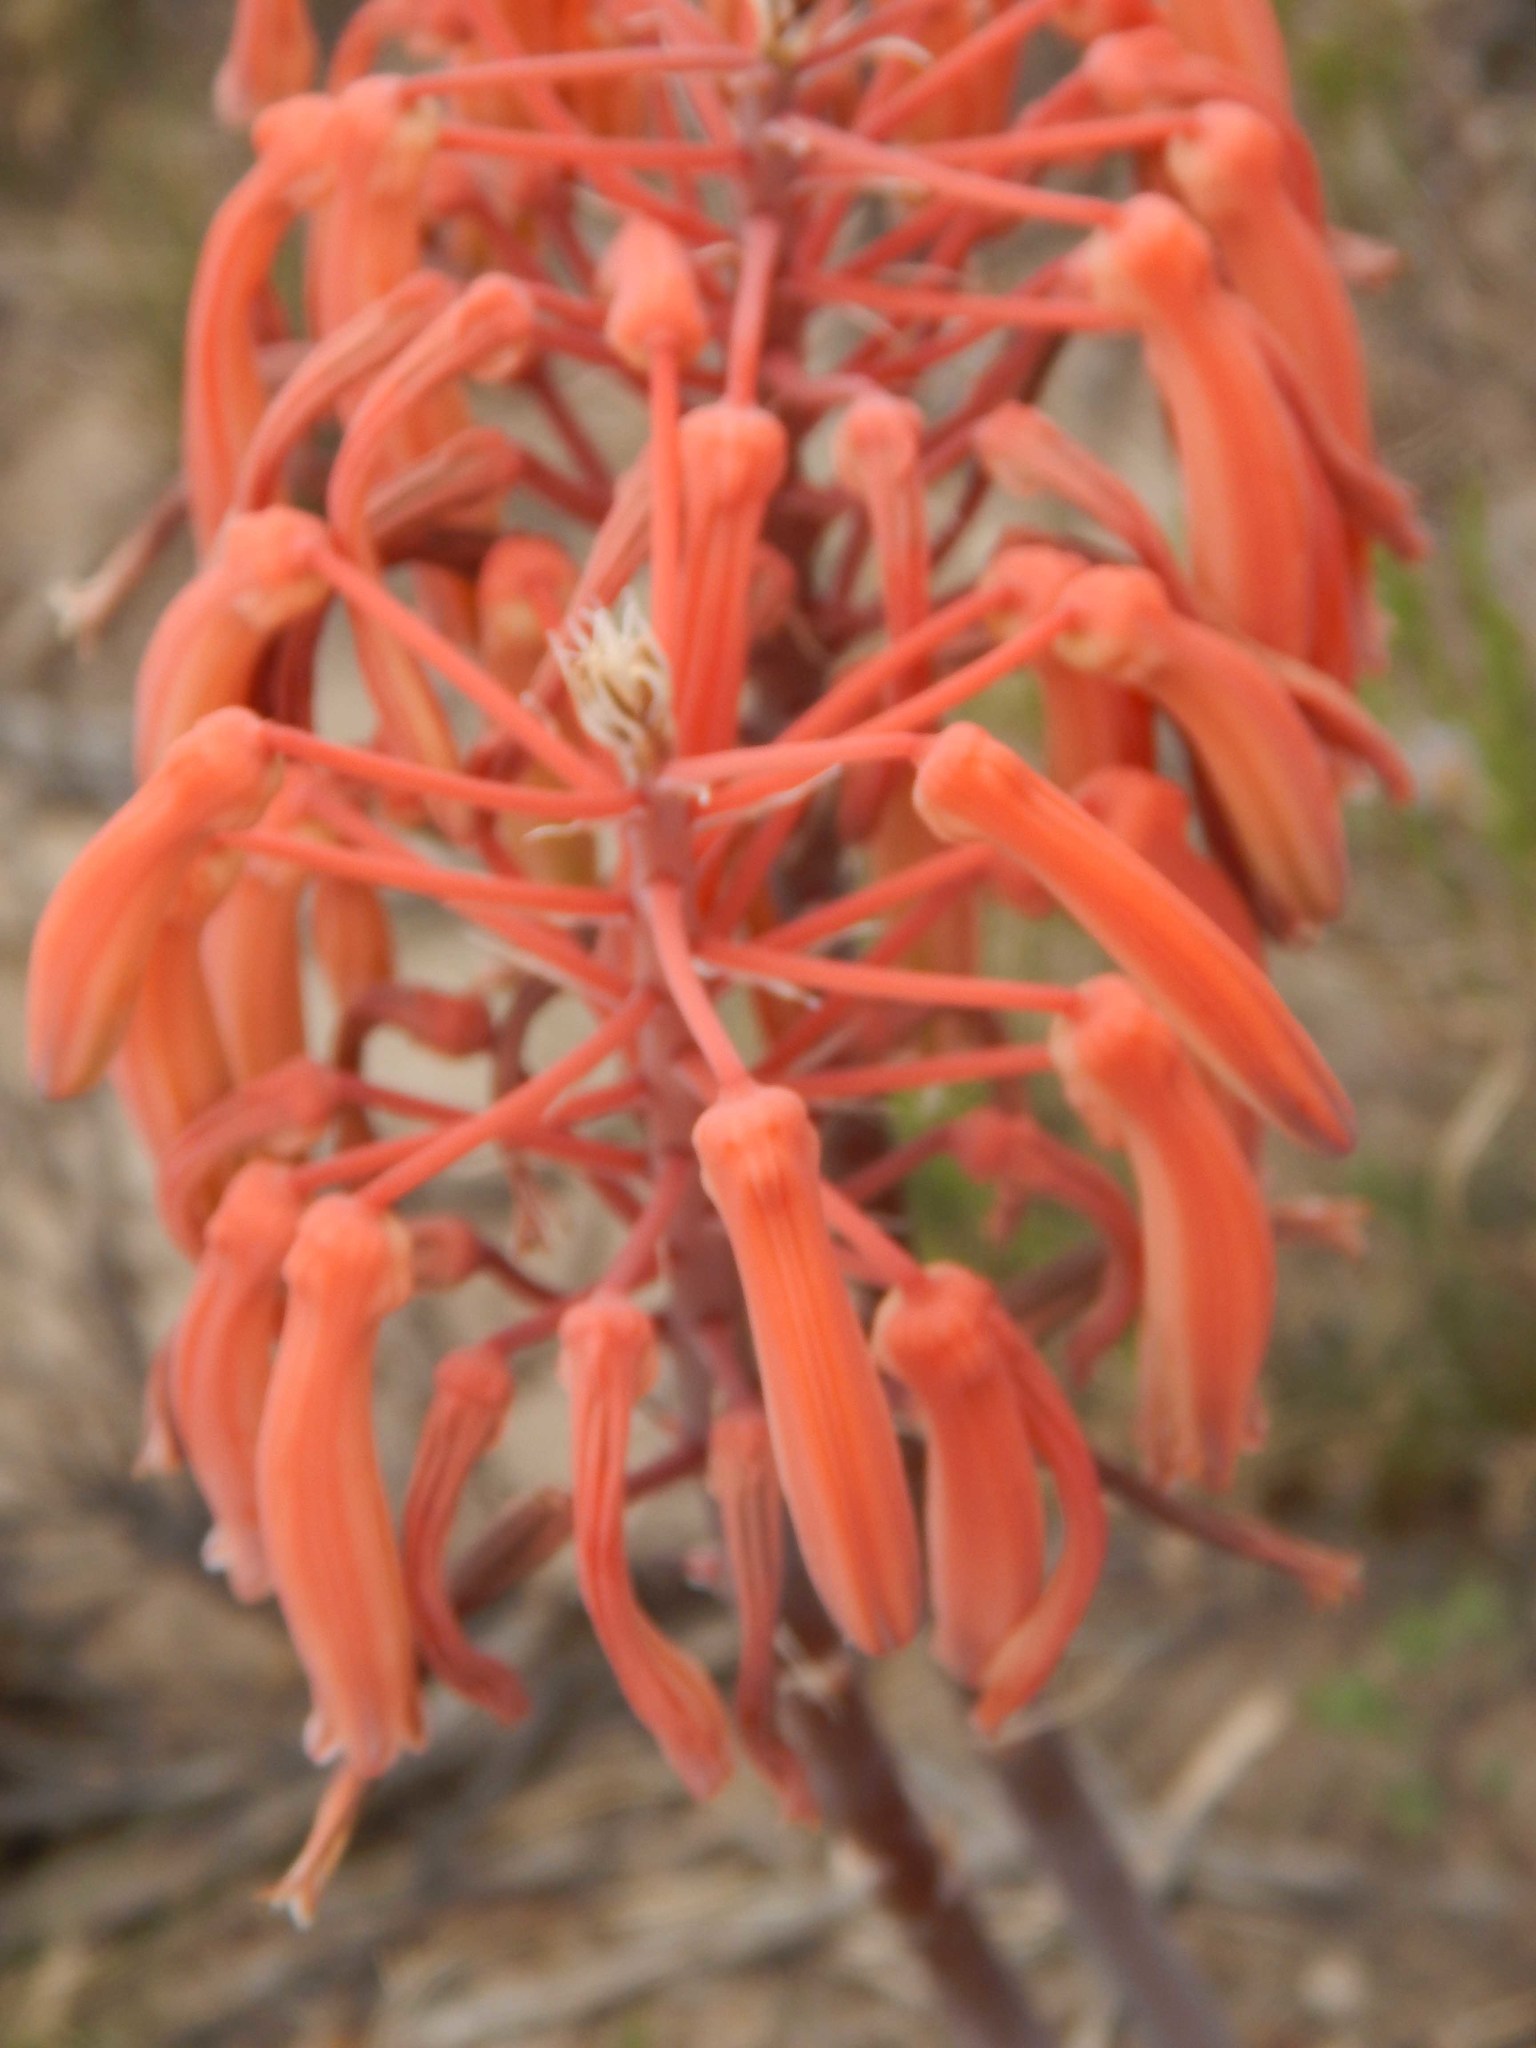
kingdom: Plantae
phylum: Tracheophyta
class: Liliopsida
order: Asparagales
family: Asphodelaceae
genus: Aristaloe
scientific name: Aristaloe aristata
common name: Guinea-fowl aloe
